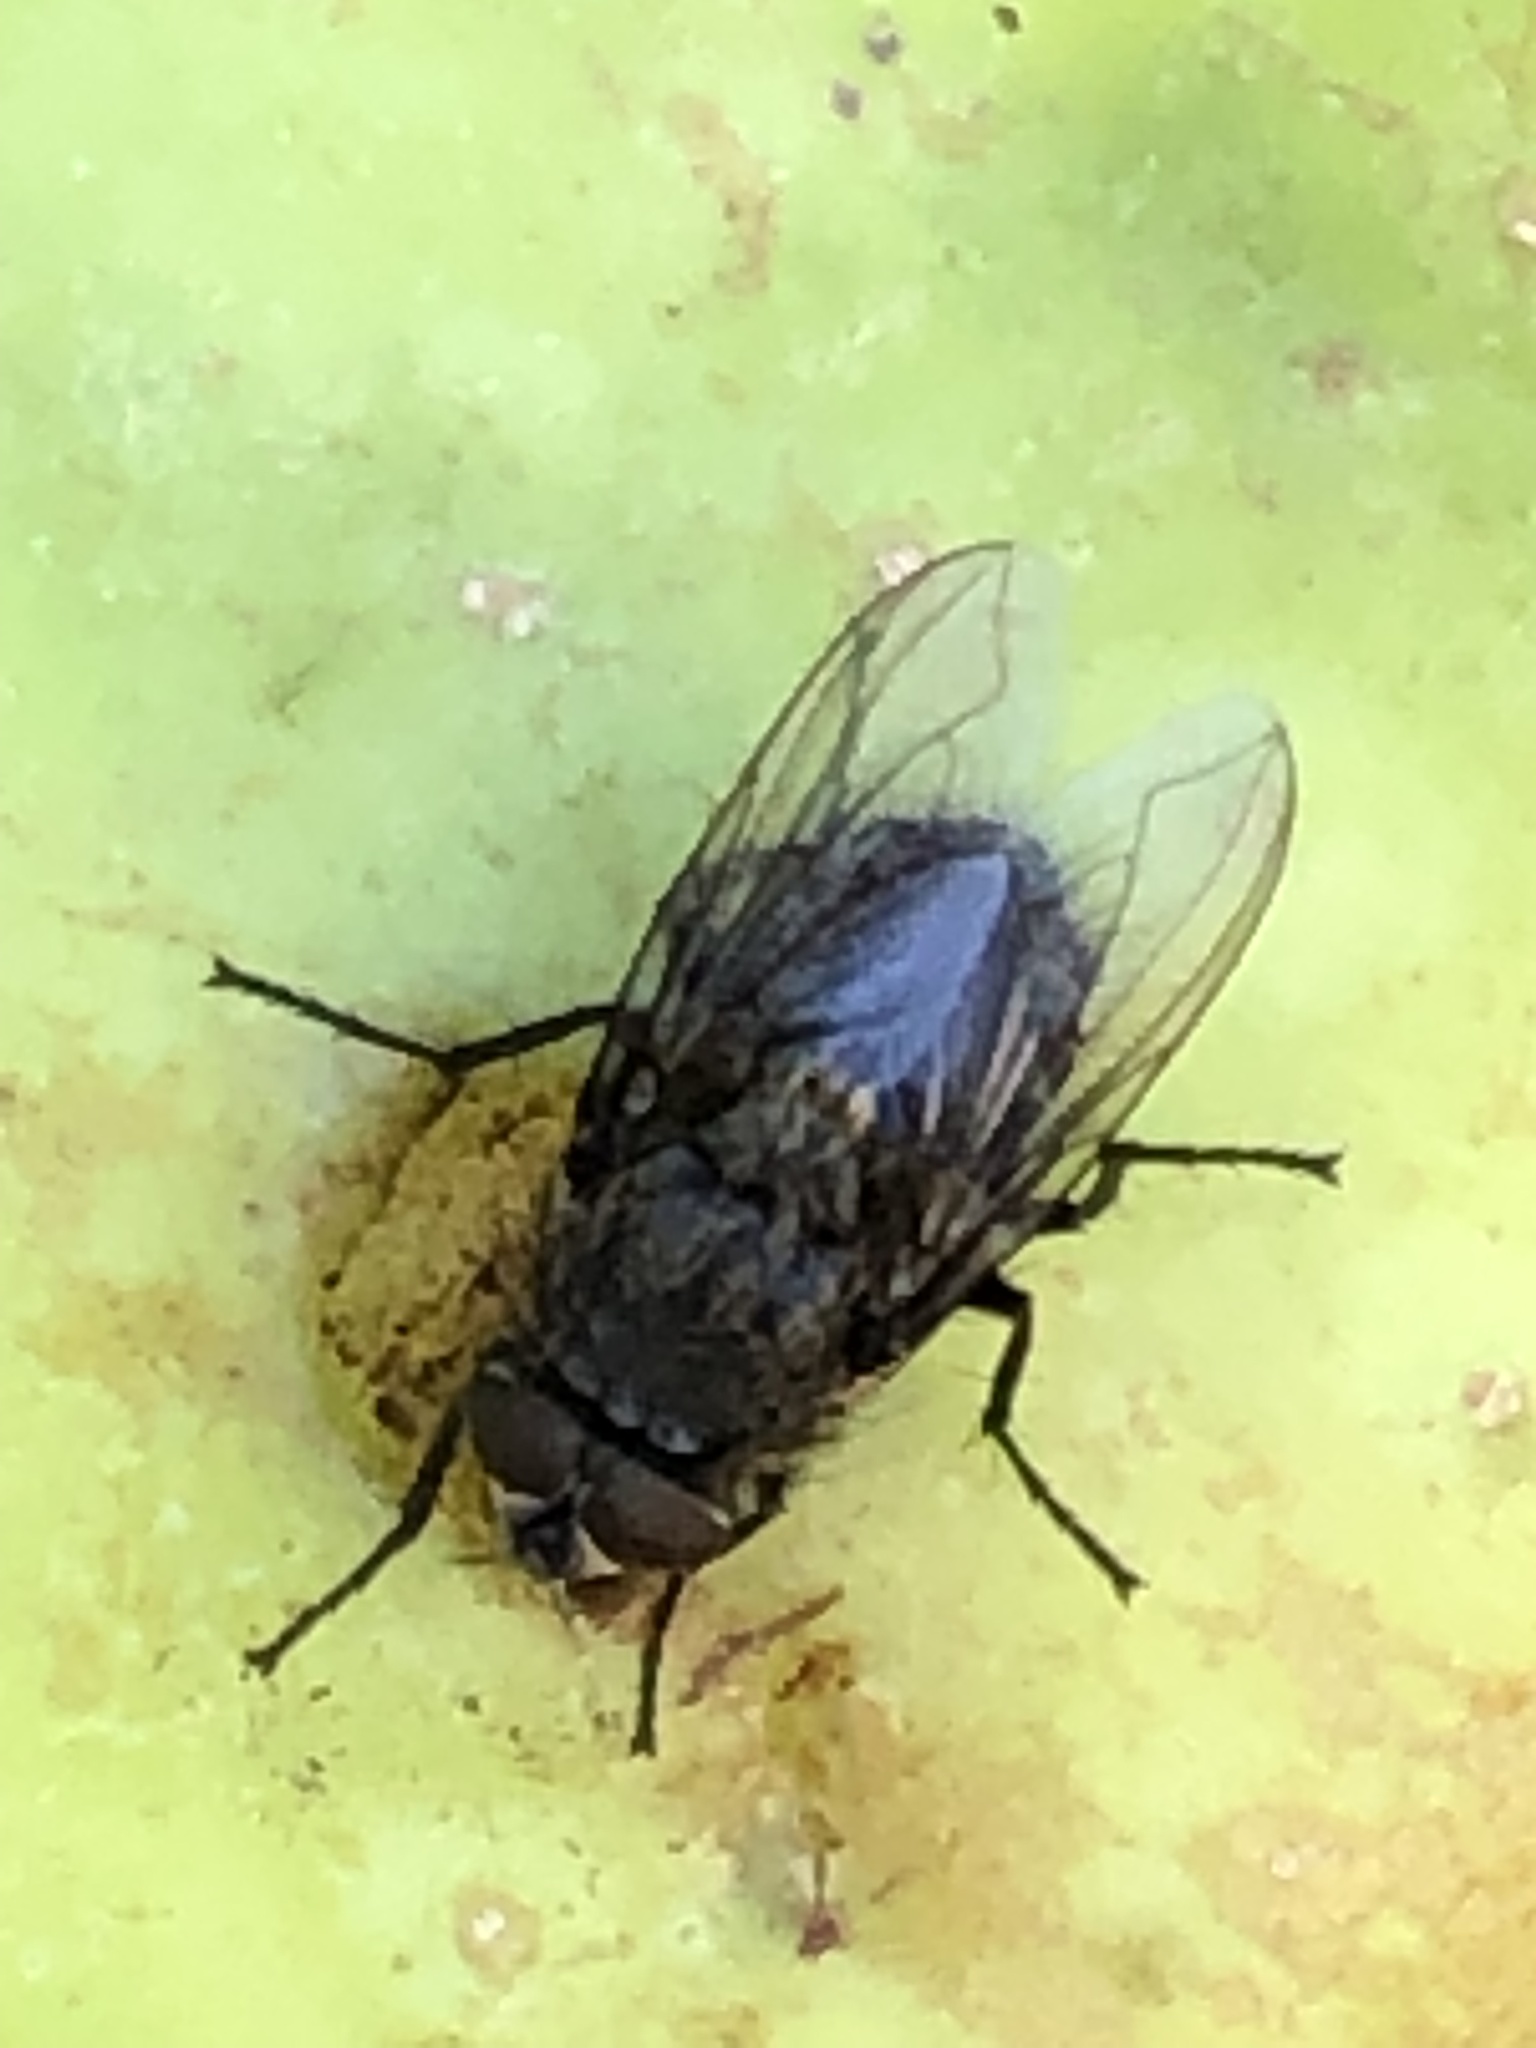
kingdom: Animalia
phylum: Arthropoda
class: Insecta
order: Diptera
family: Polleniidae
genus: Pollenia
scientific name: Pollenia
